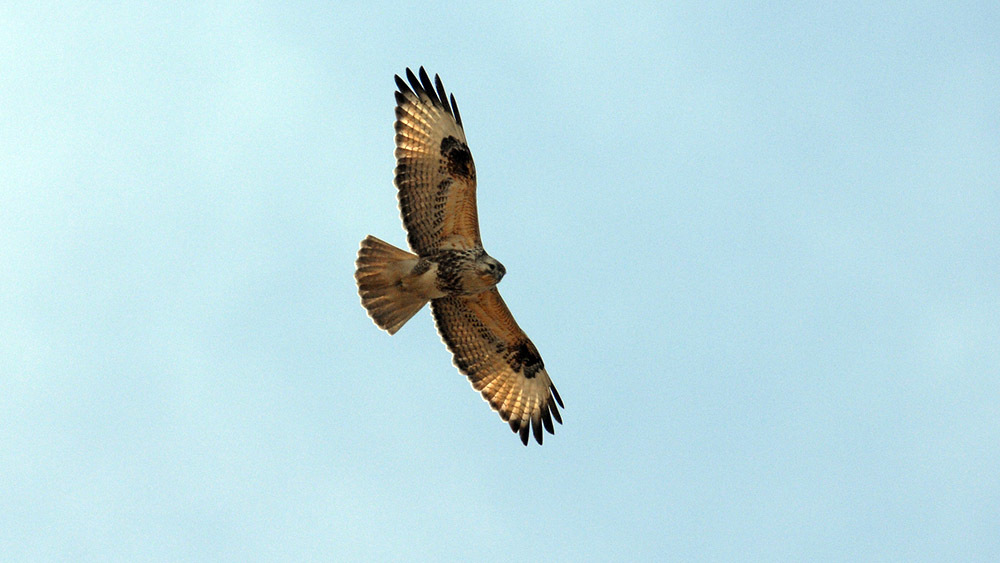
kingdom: Animalia
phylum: Chordata
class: Aves
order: Accipitriformes
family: Accipitridae
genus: Buteo
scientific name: Buteo hemilasius
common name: Upland buzzard
